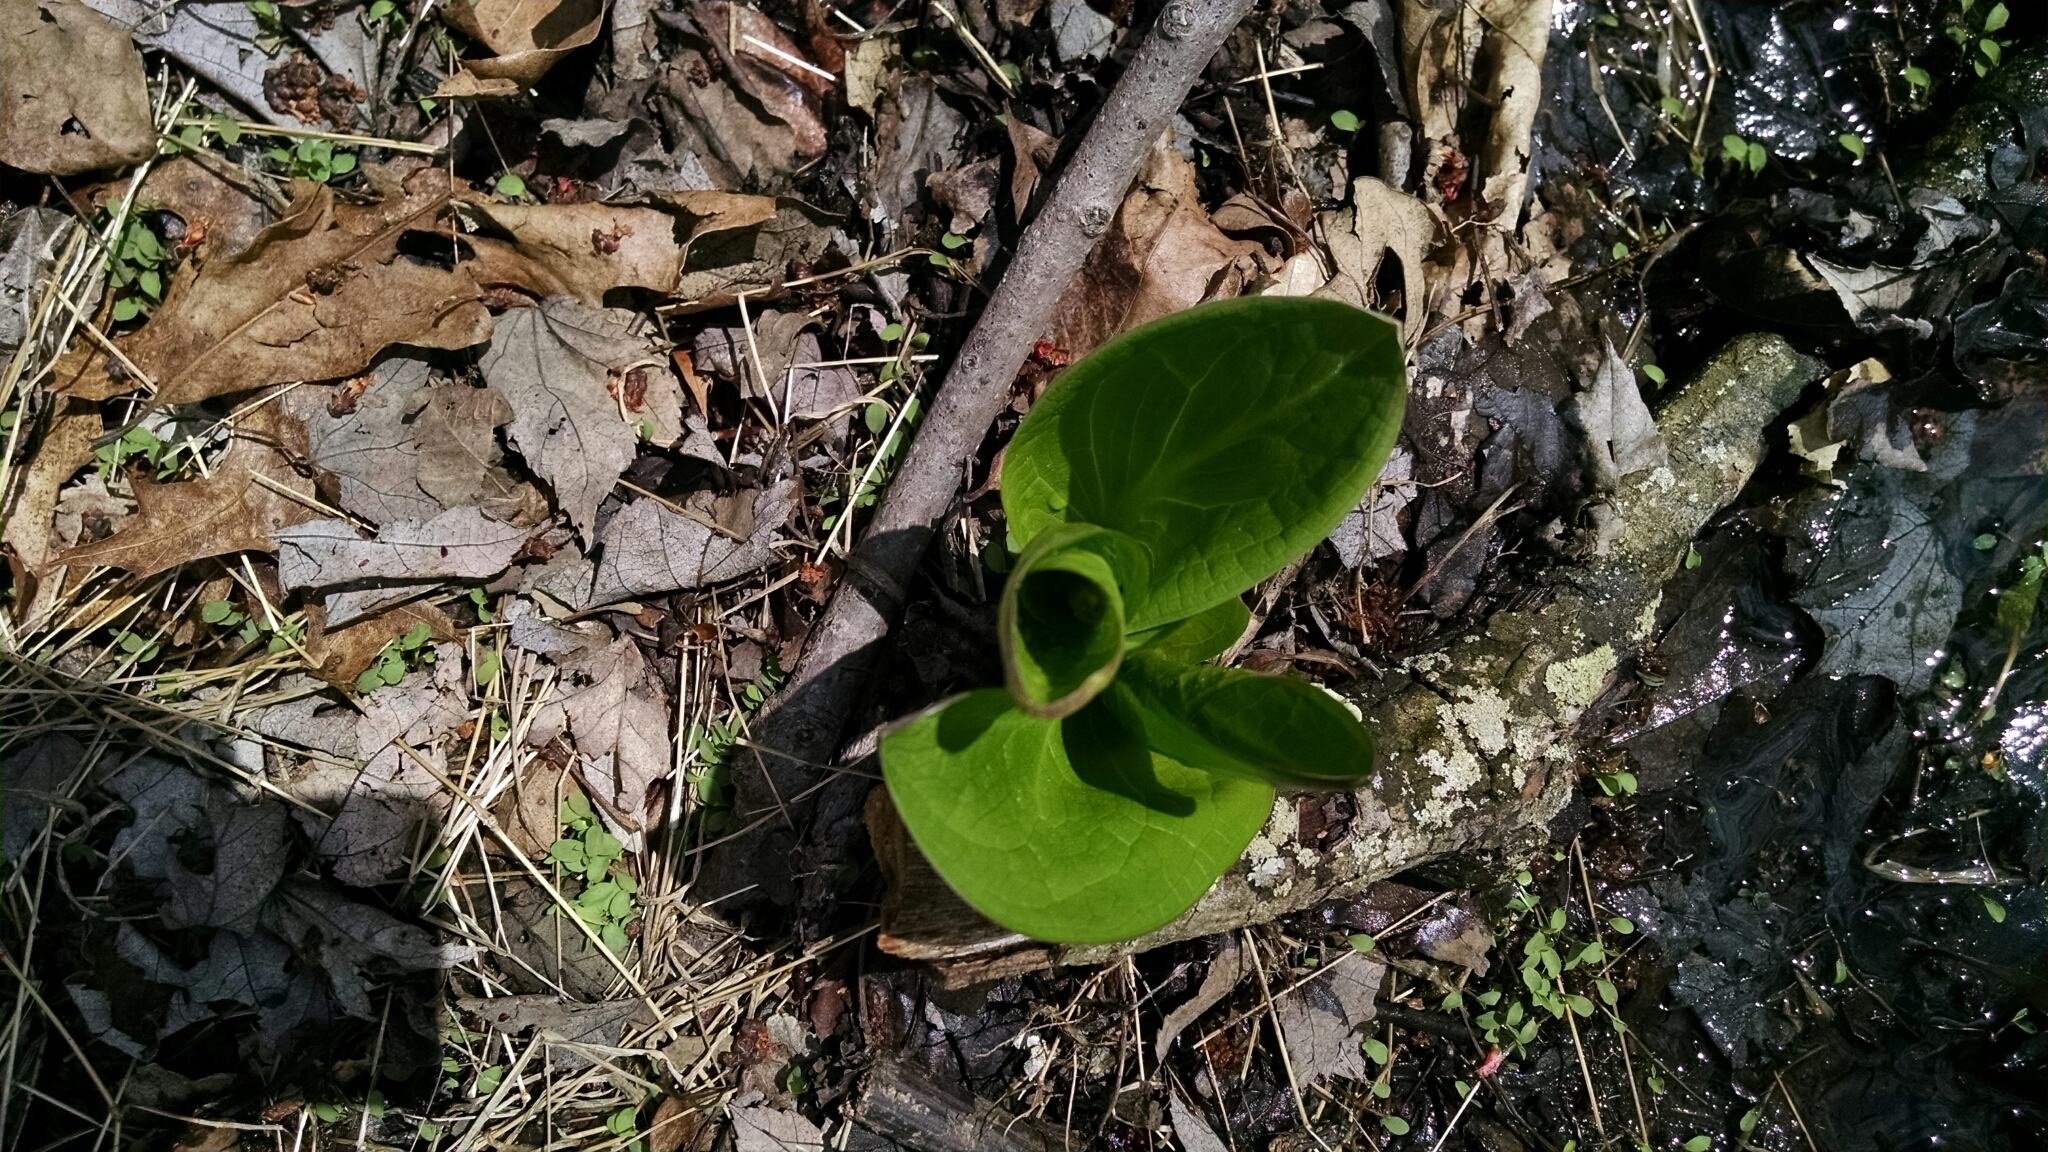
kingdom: Plantae
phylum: Tracheophyta
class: Liliopsida
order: Alismatales
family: Araceae
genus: Symplocarpus
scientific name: Symplocarpus foetidus
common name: Eastern skunk cabbage
